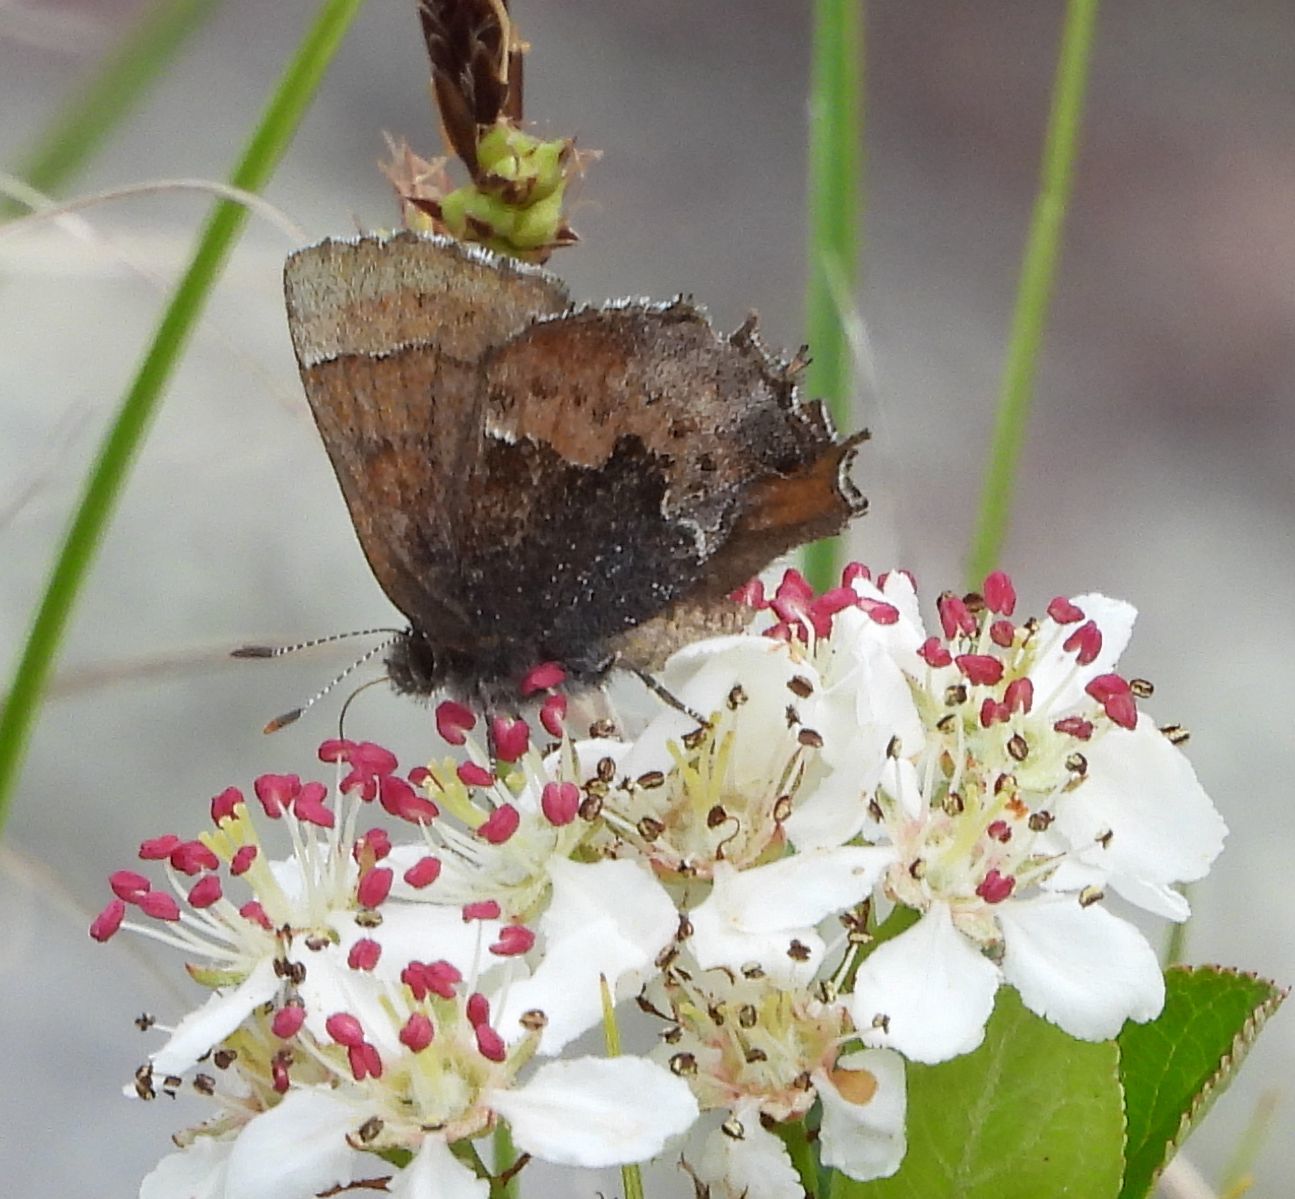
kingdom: Animalia
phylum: Arthropoda
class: Insecta
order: Lepidoptera
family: Lycaenidae
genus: Incisalia
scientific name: Incisalia henrici
